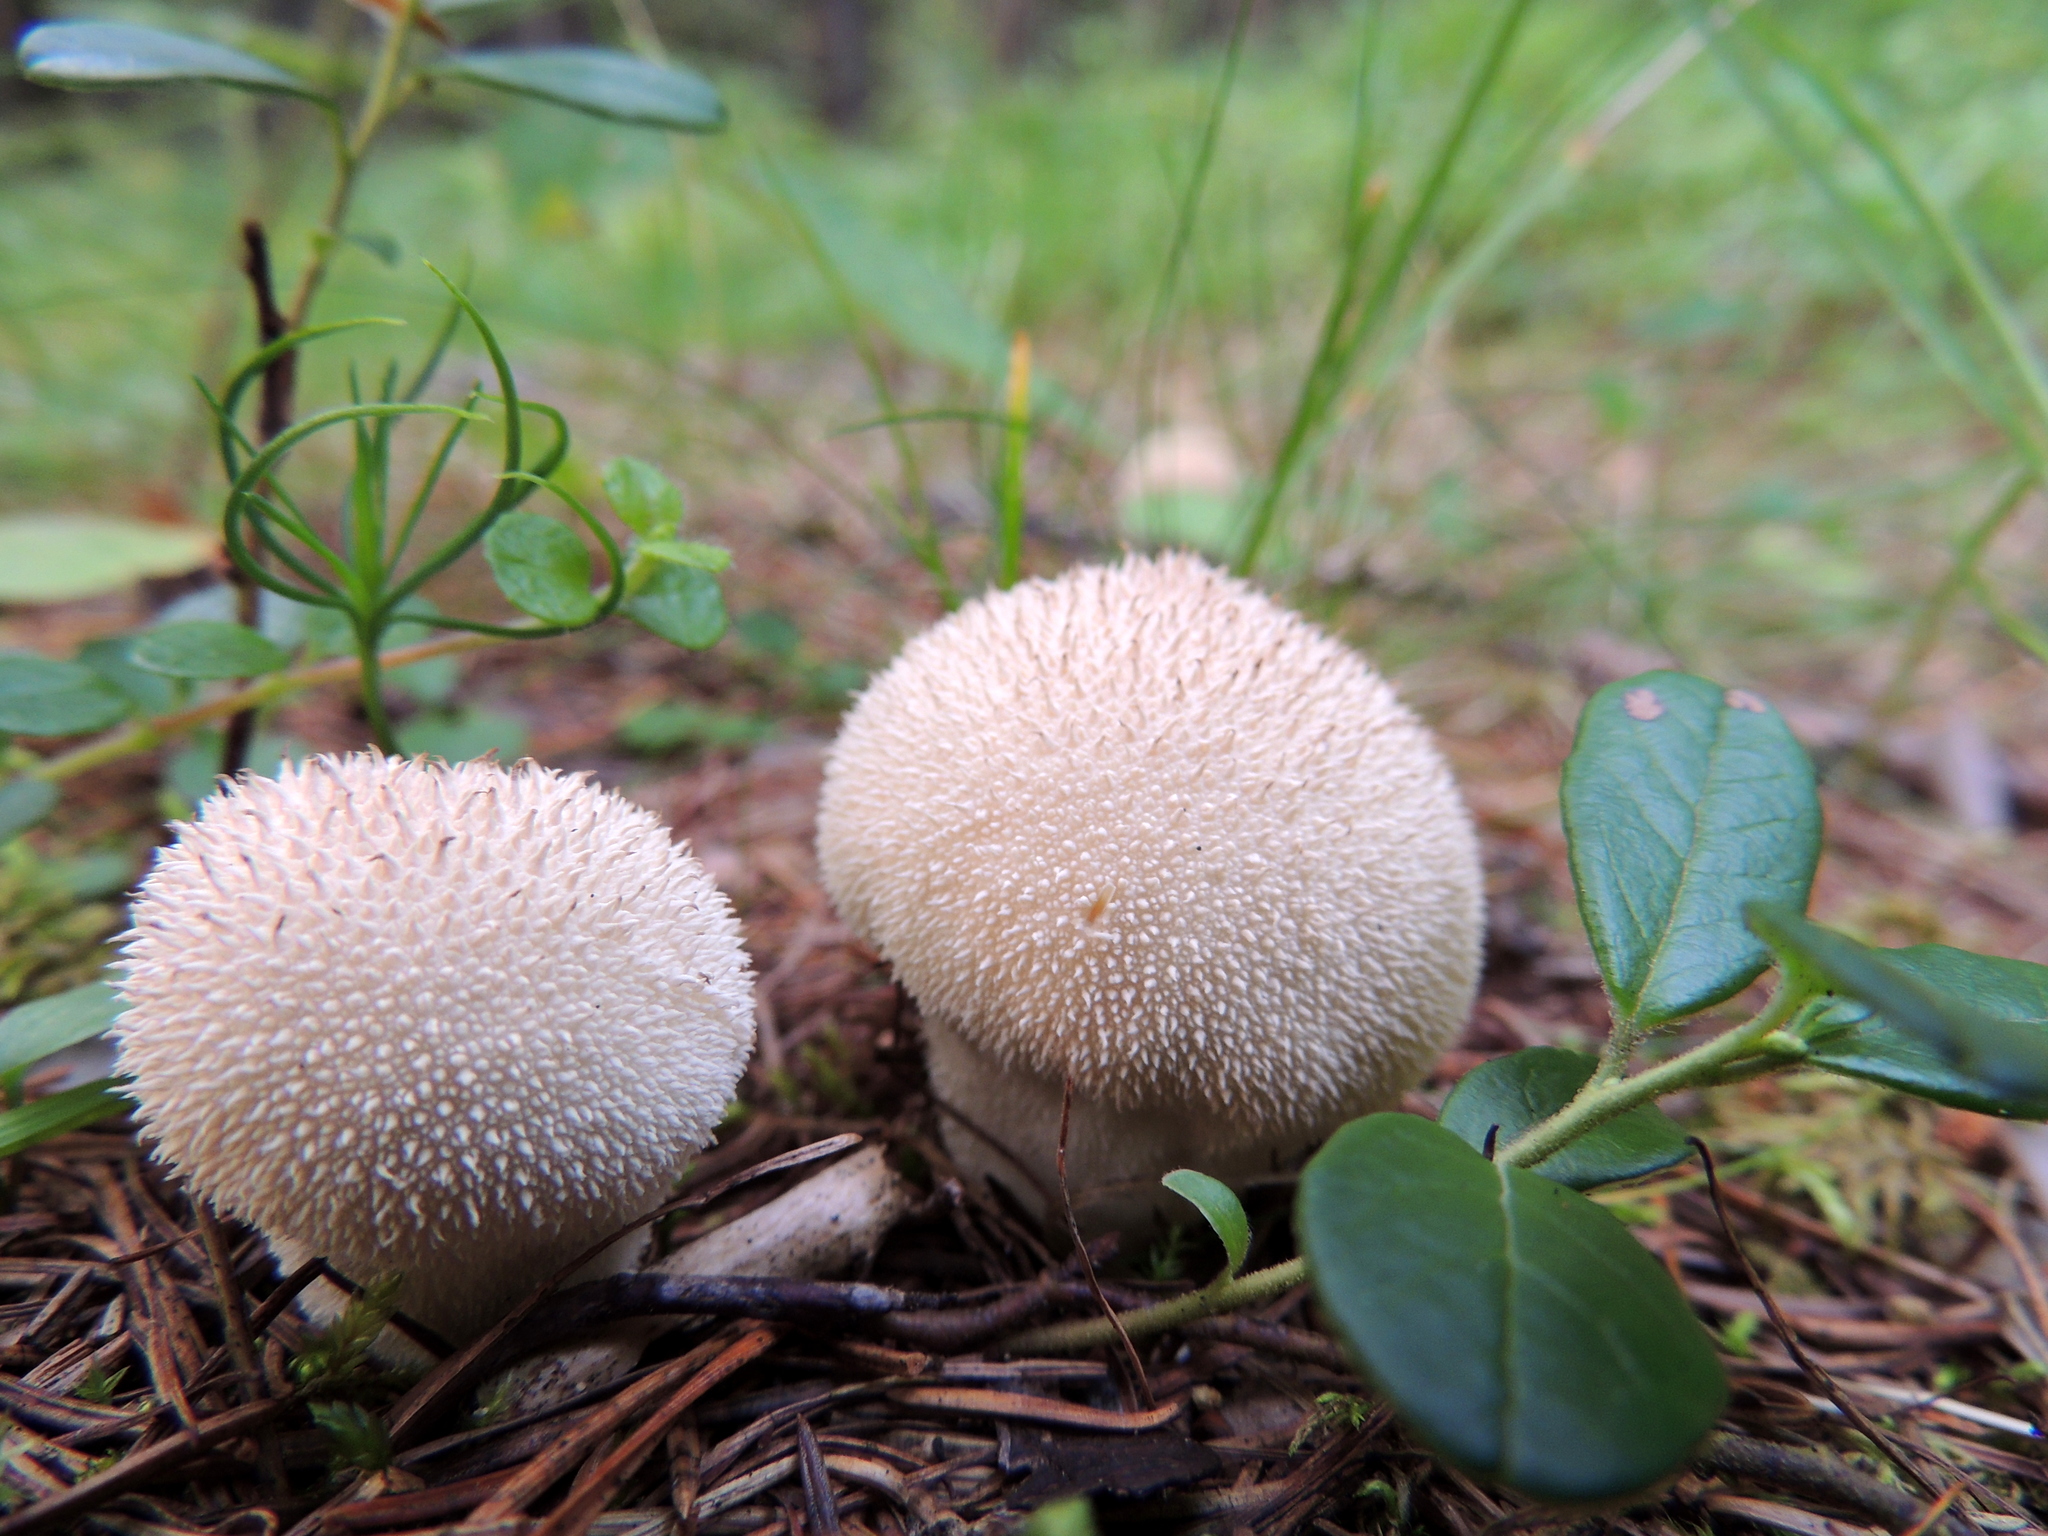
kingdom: Fungi
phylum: Basidiomycota
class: Agaricomycetes
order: Agaricales
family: Lycoperdaceae
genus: Lycoperdon
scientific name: Lycoperdon perlatum
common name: Common puffball
